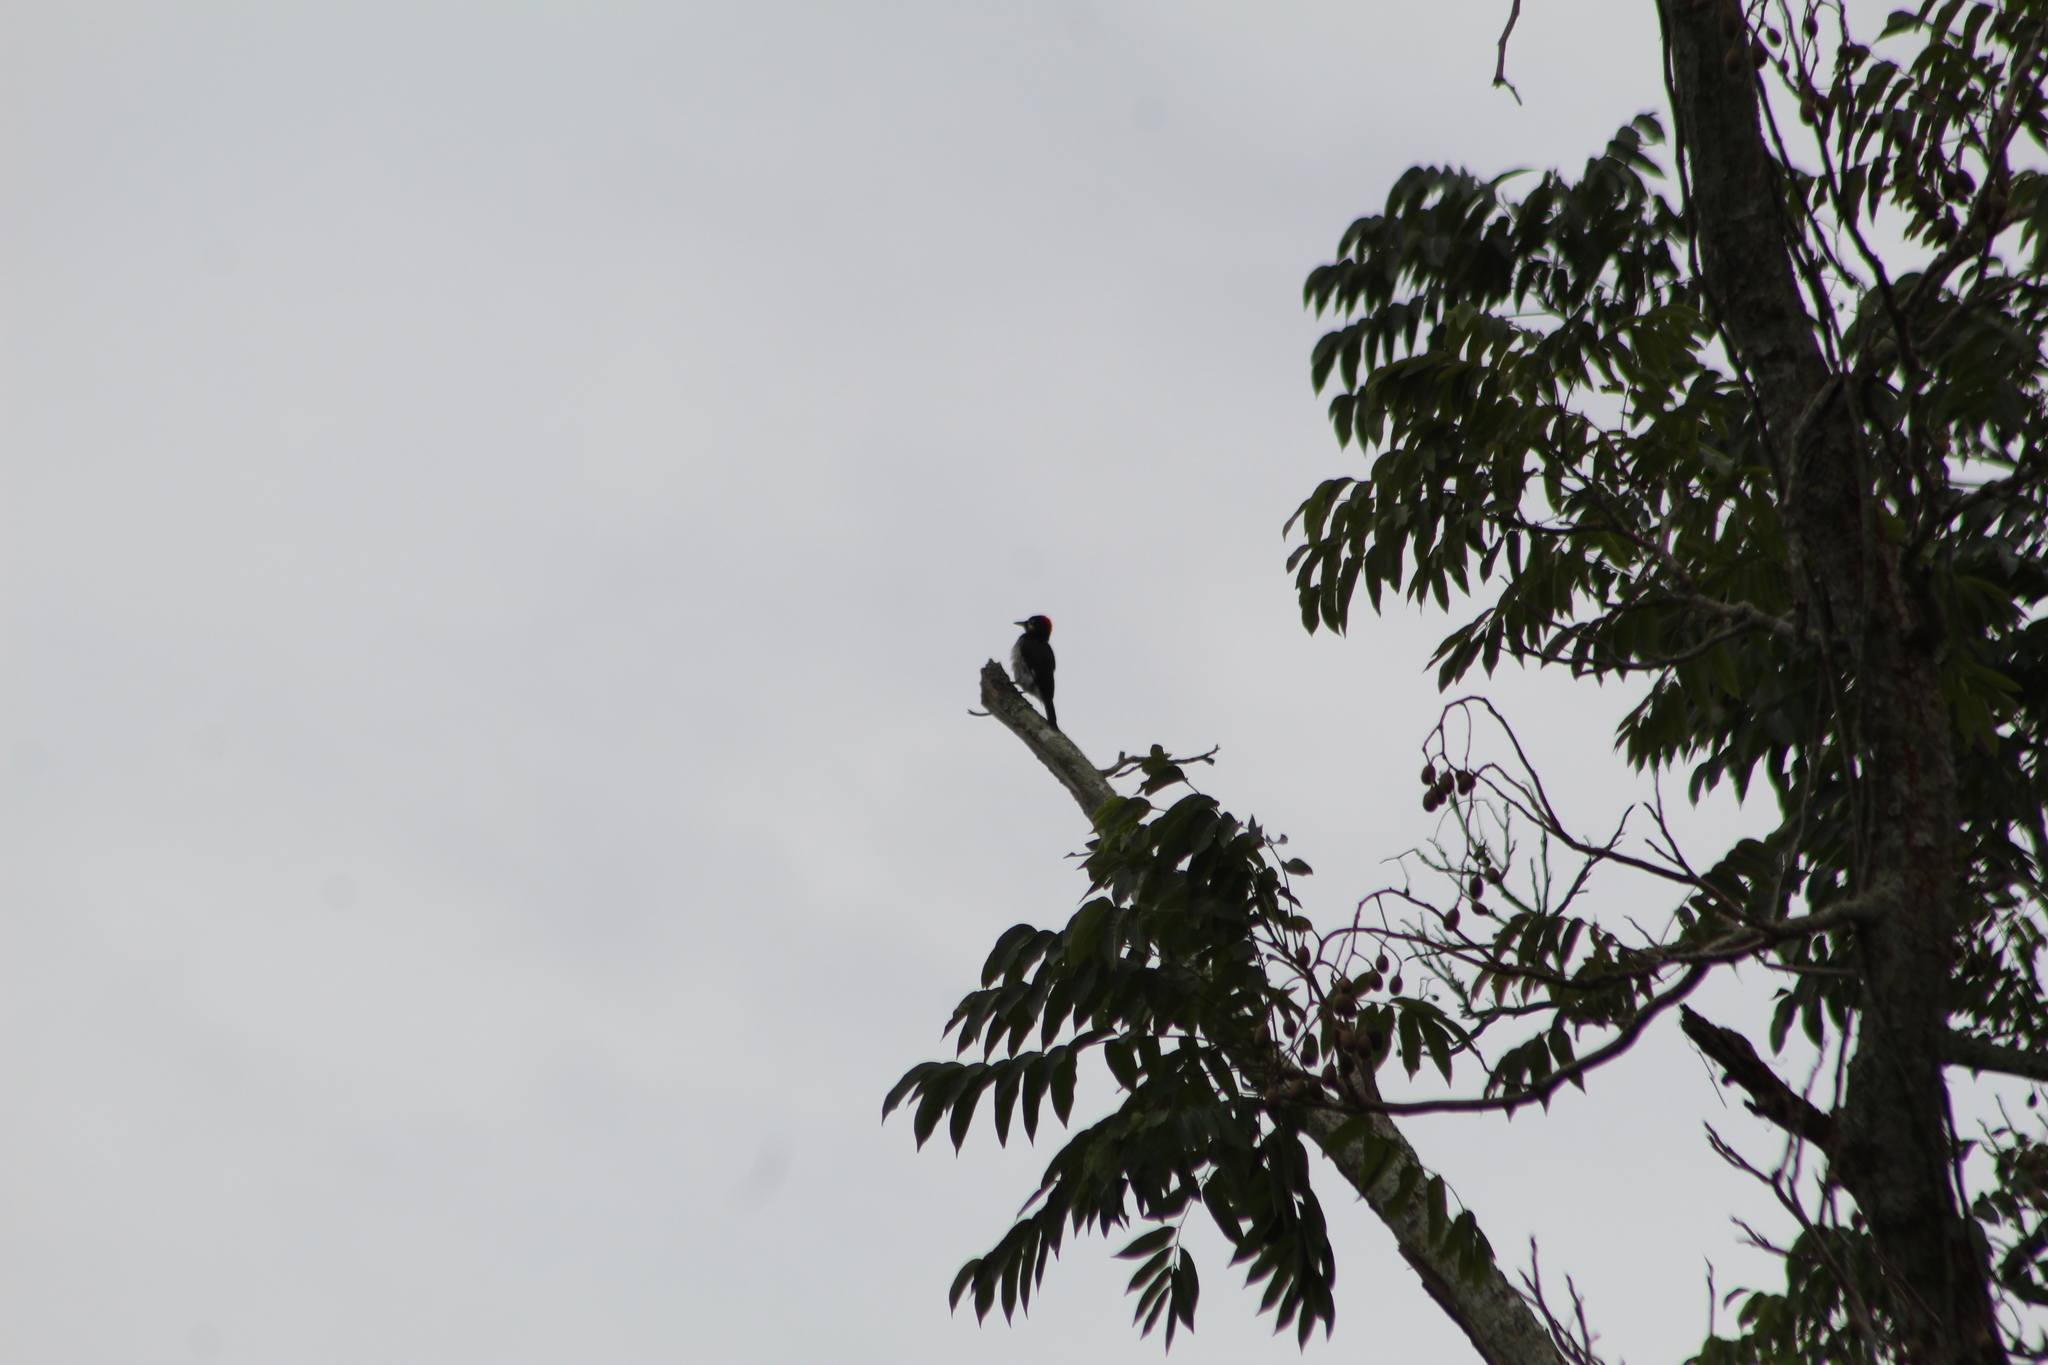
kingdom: Animalia
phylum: Chordata
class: Aves
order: Piciformes
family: Picidae
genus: Melanerpes
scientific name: Melanerpes formicivorus
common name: Acorn woodpecker
